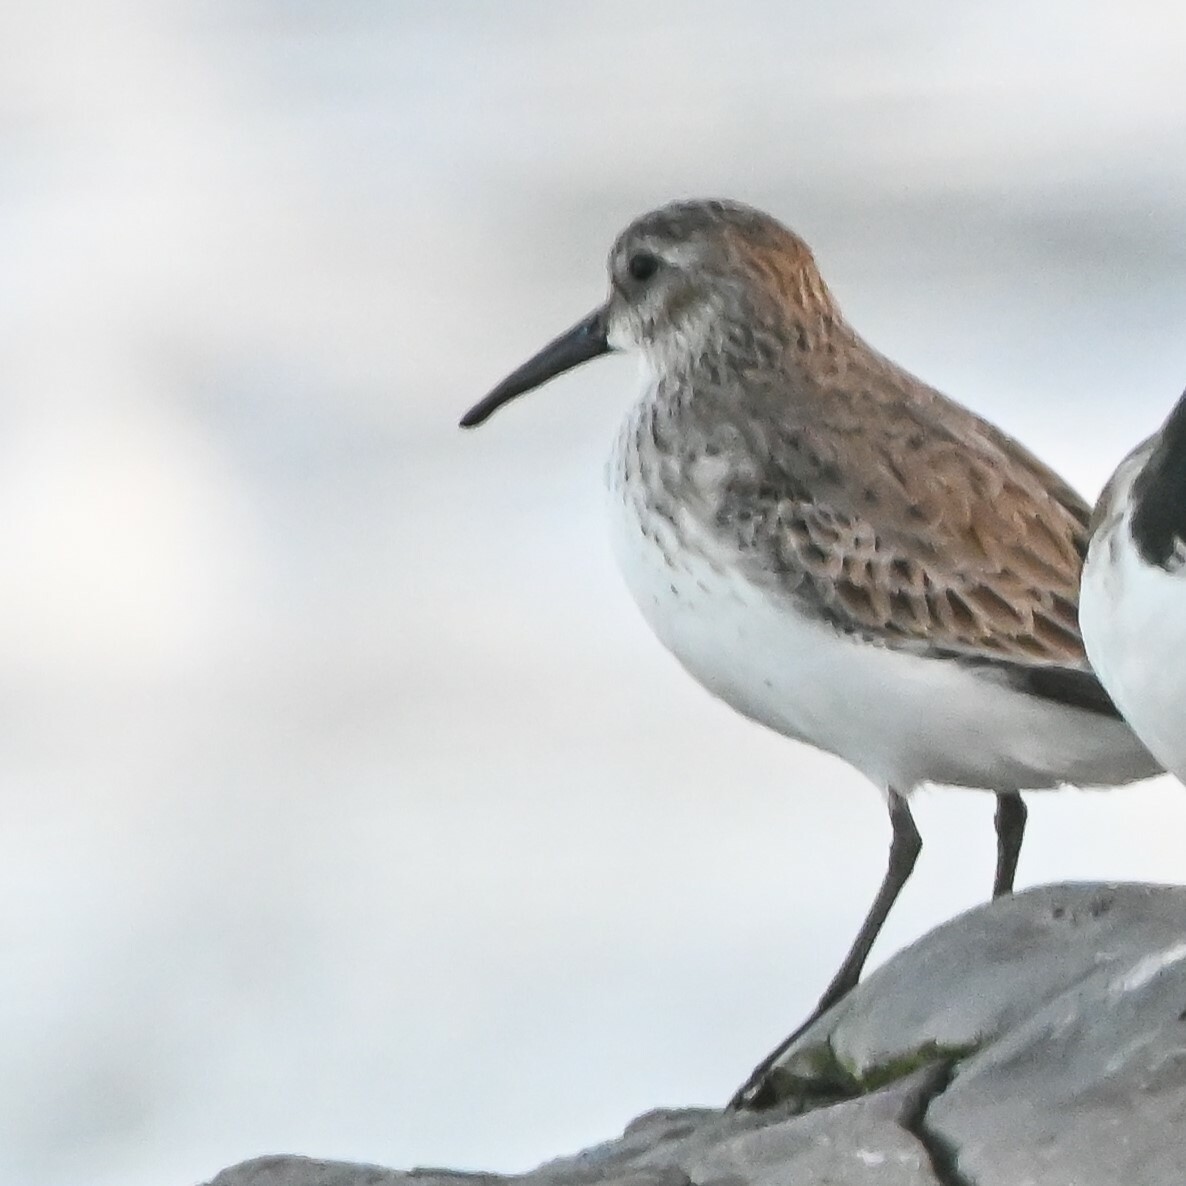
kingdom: Animalia
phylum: Chordata
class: Aves
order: Charadriiformes
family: Scolopacidae
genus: Calidris
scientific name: Calidris alpina
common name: Dunlin
